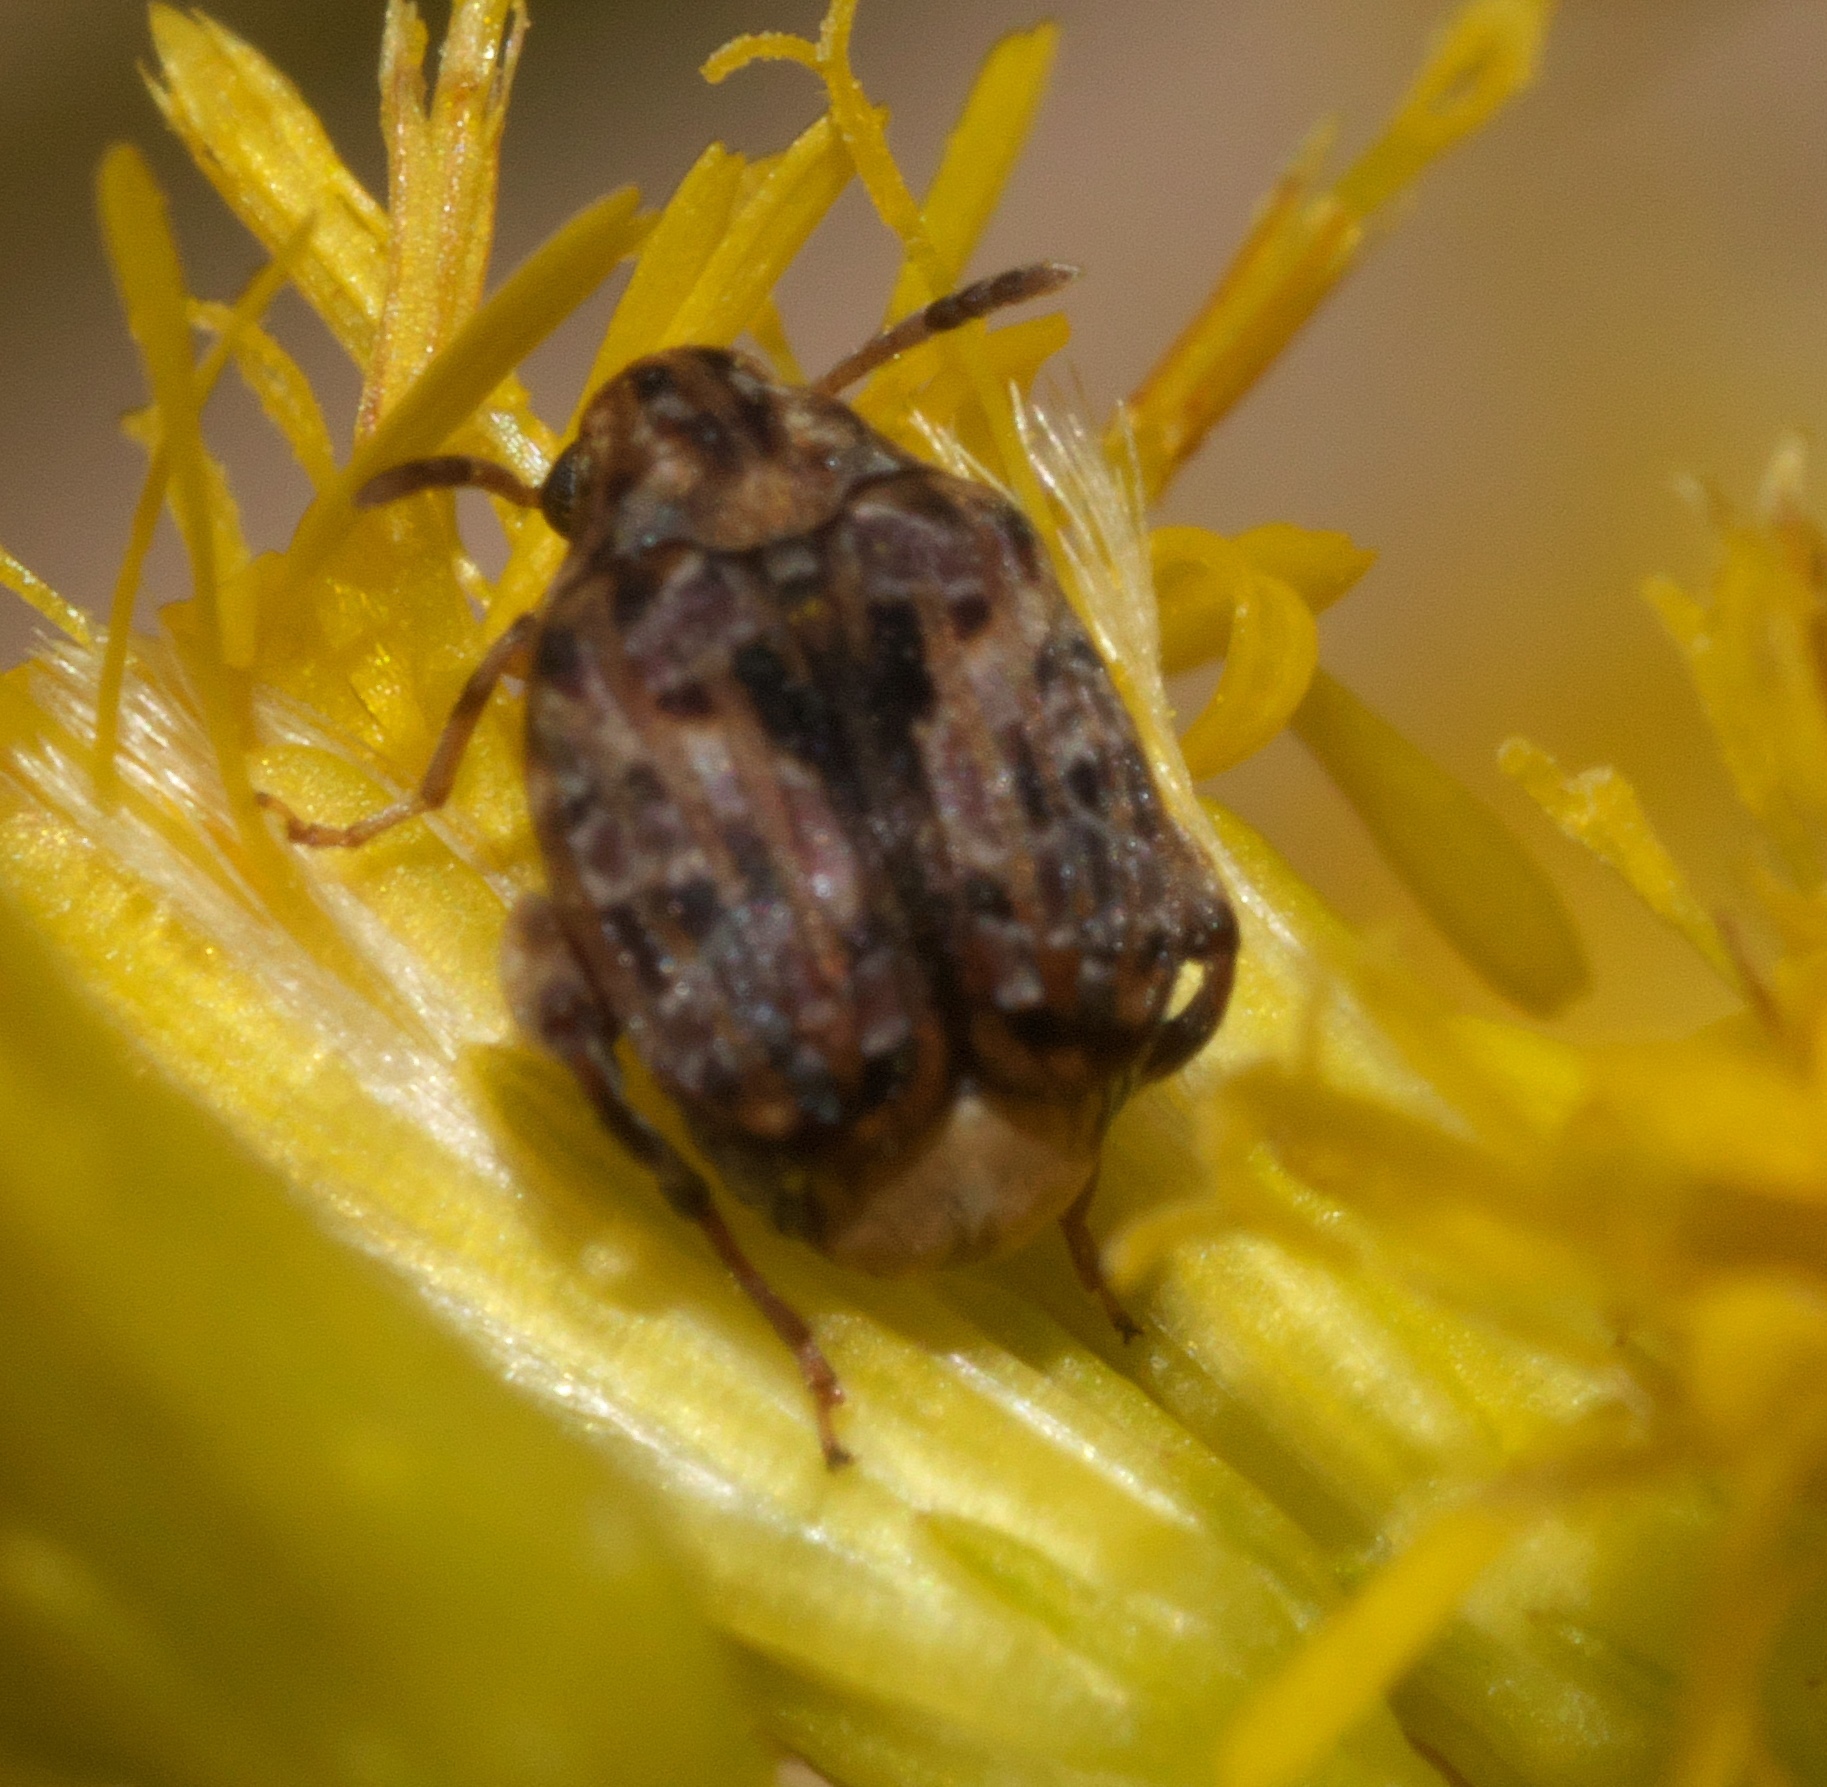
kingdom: Animalia
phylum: Arthropoda
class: Insecta
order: Coleoptera
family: Chrysomelidae
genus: Gibbobruchus
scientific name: Gibbobruchus mimus
